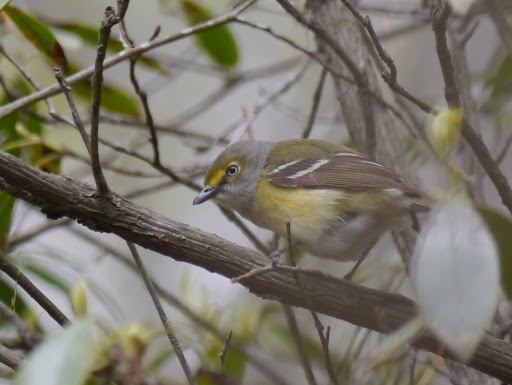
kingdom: Animalia
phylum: Chordata
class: Aves
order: Passeriformes
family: Vireonidae
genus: Vireo
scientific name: Vireo griseus
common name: White-eyed vireo
